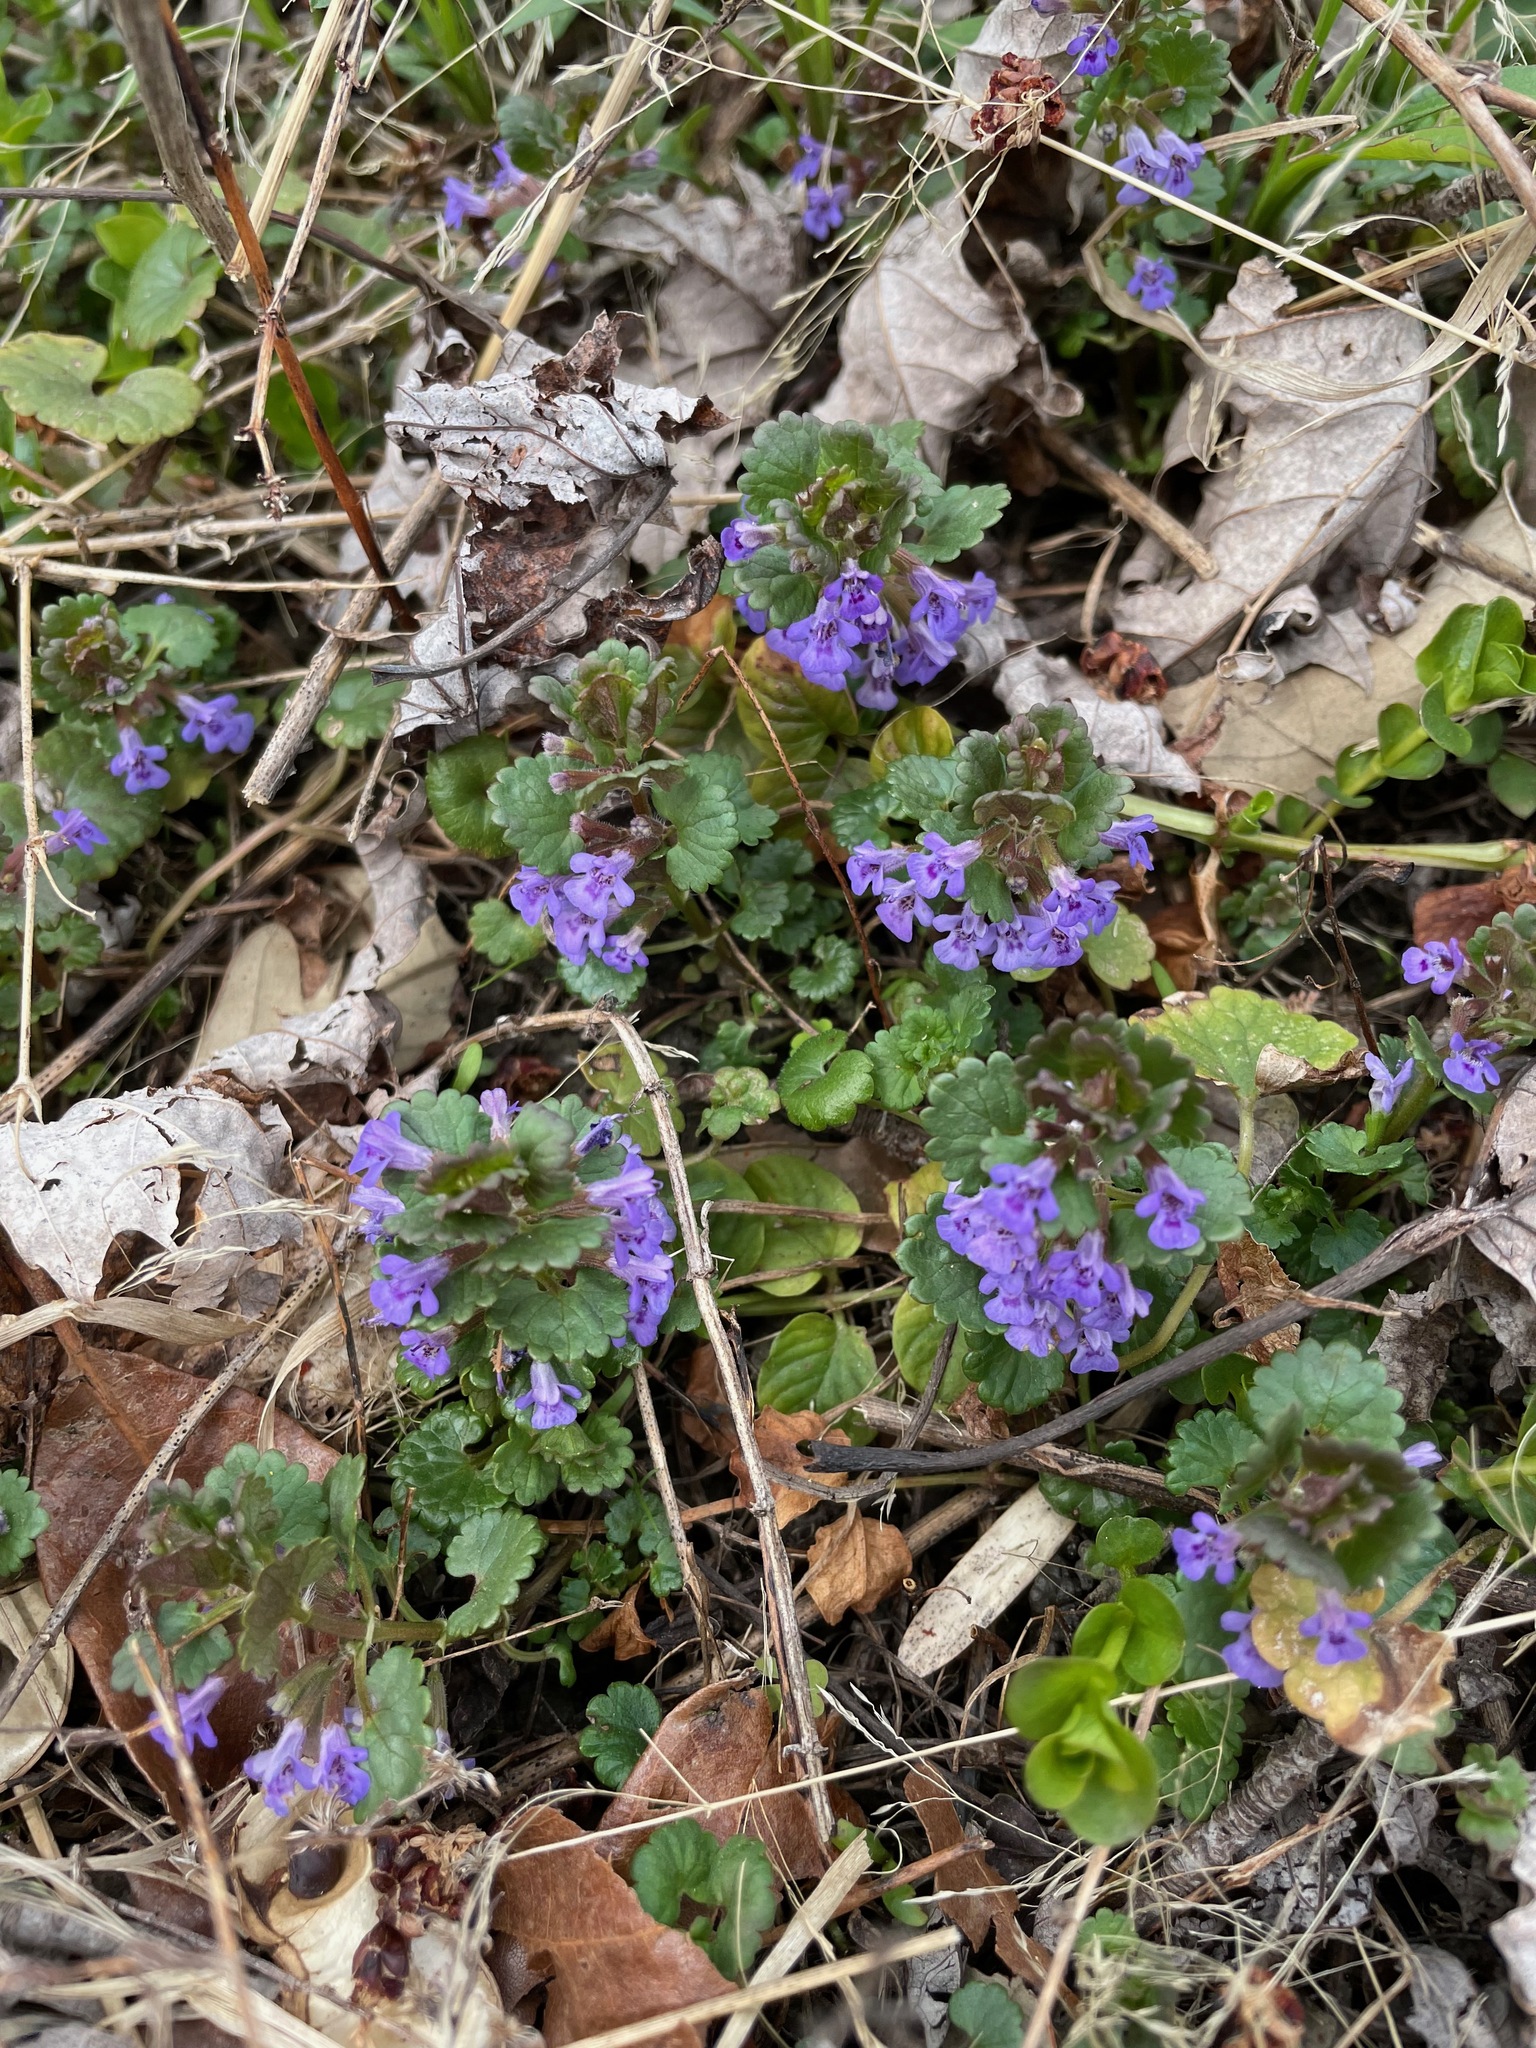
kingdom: Plantae
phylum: Tracheophyta
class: Magnoliopsida
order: Lamiales
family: Lamiaceae
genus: Glechoma
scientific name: Glechoma hederacea
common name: Ground ivy
